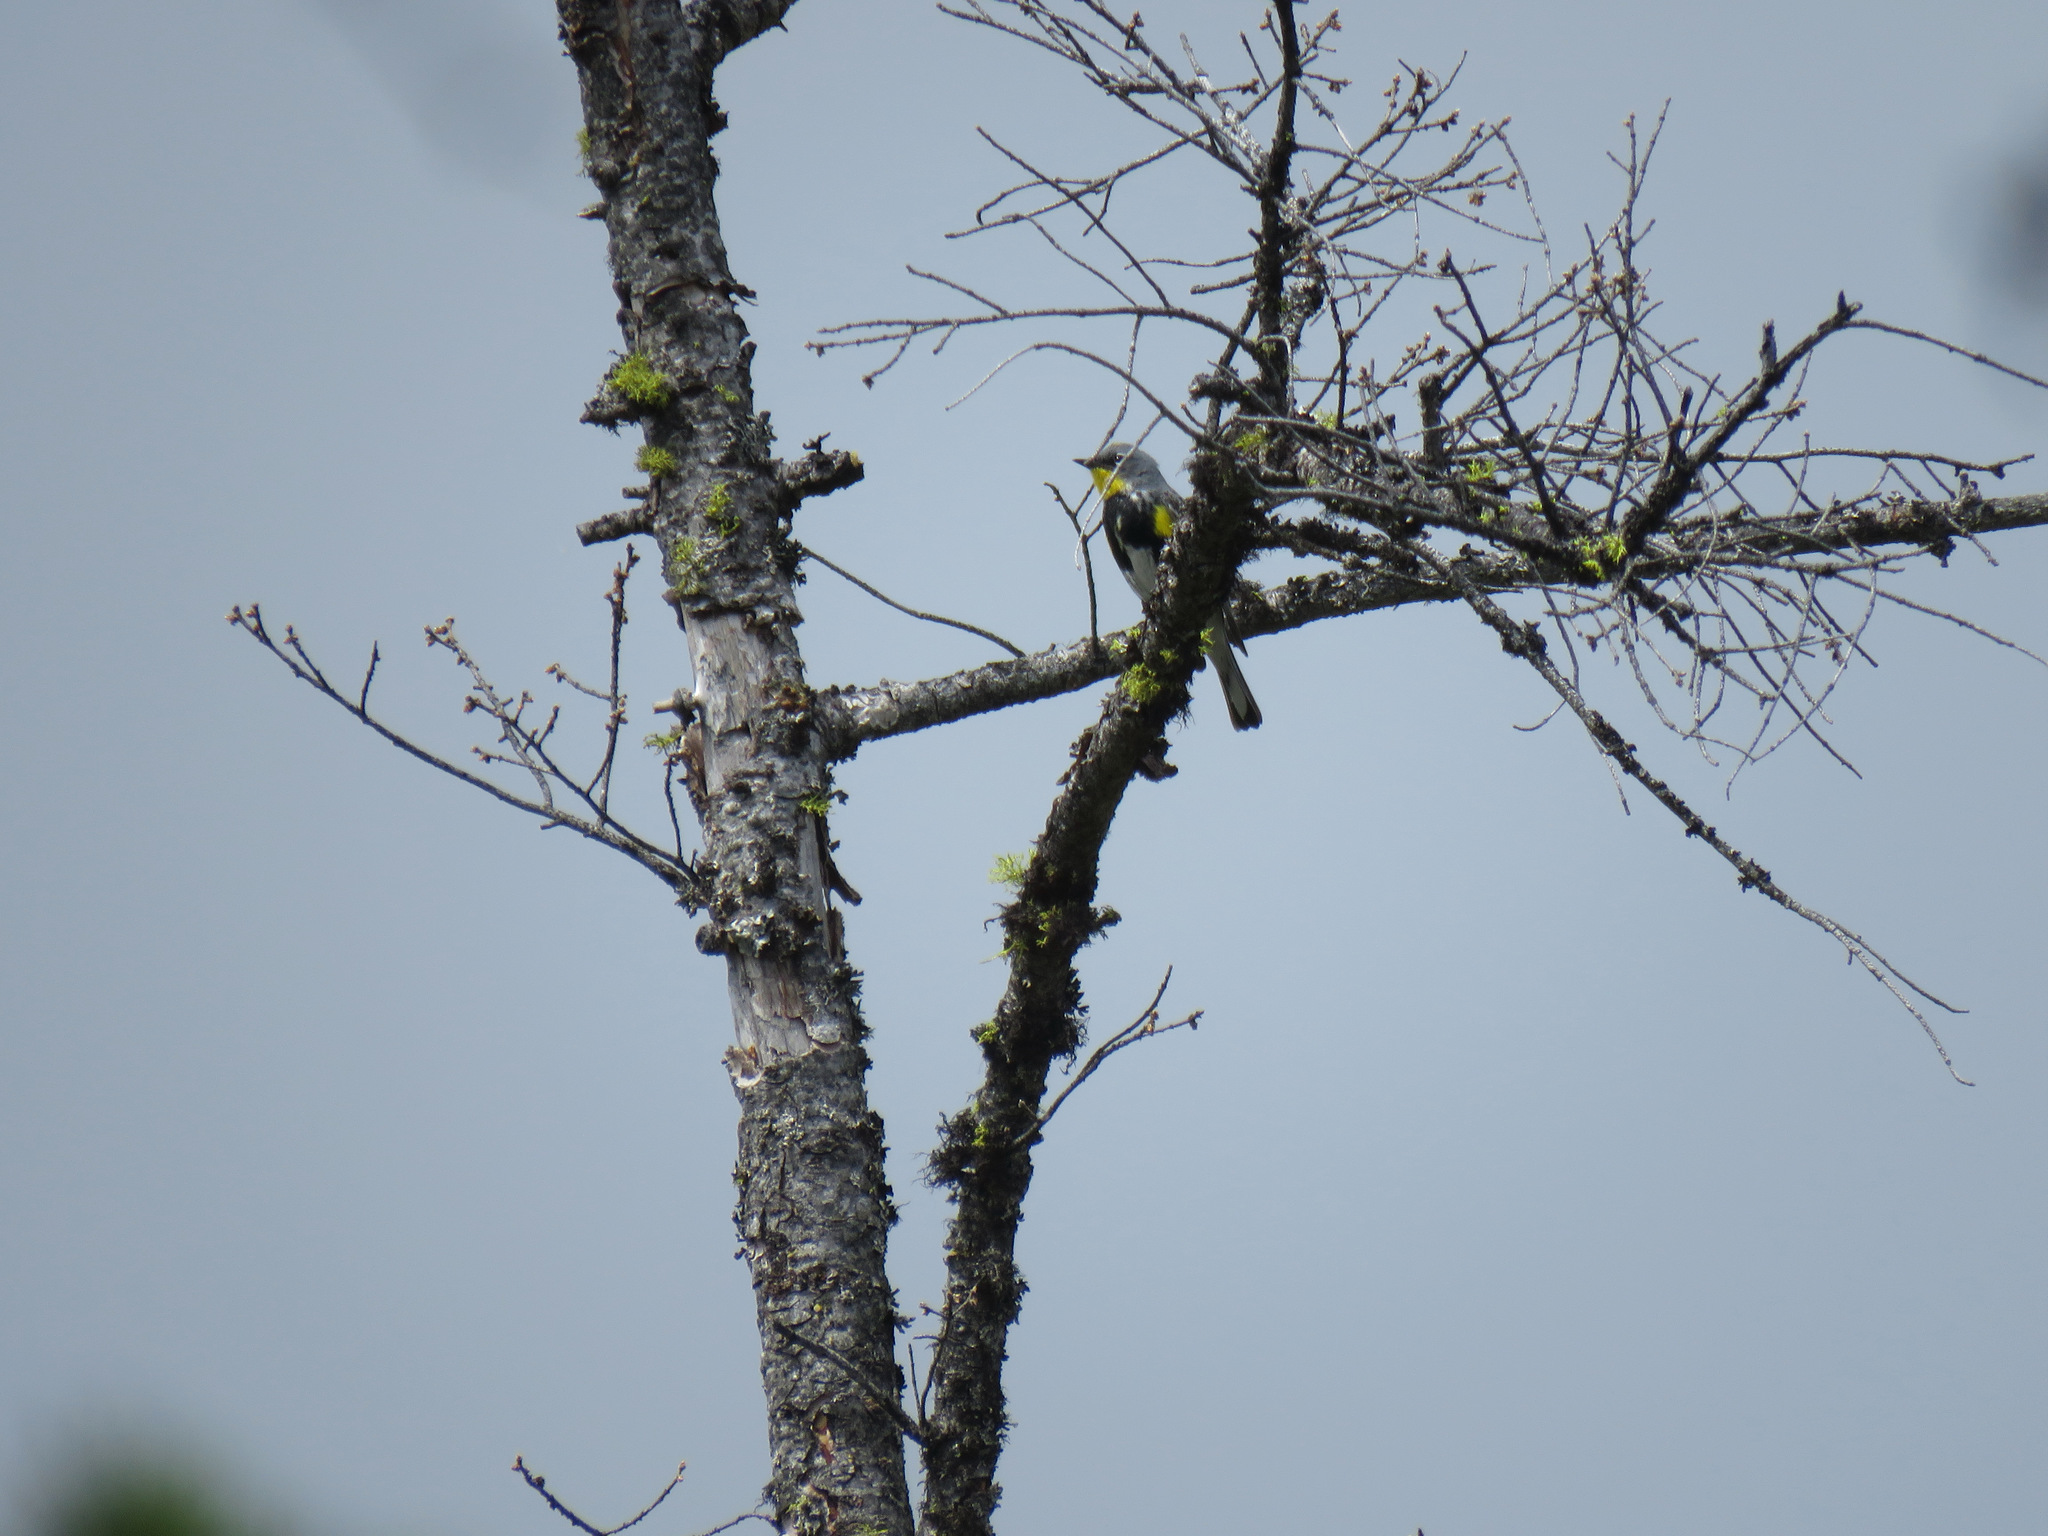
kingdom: Animalia
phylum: Chordata
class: Aves
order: Passeriformes
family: Parulidae
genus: Setophaga
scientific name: Setophaga coronata
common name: Myrtle warbler
